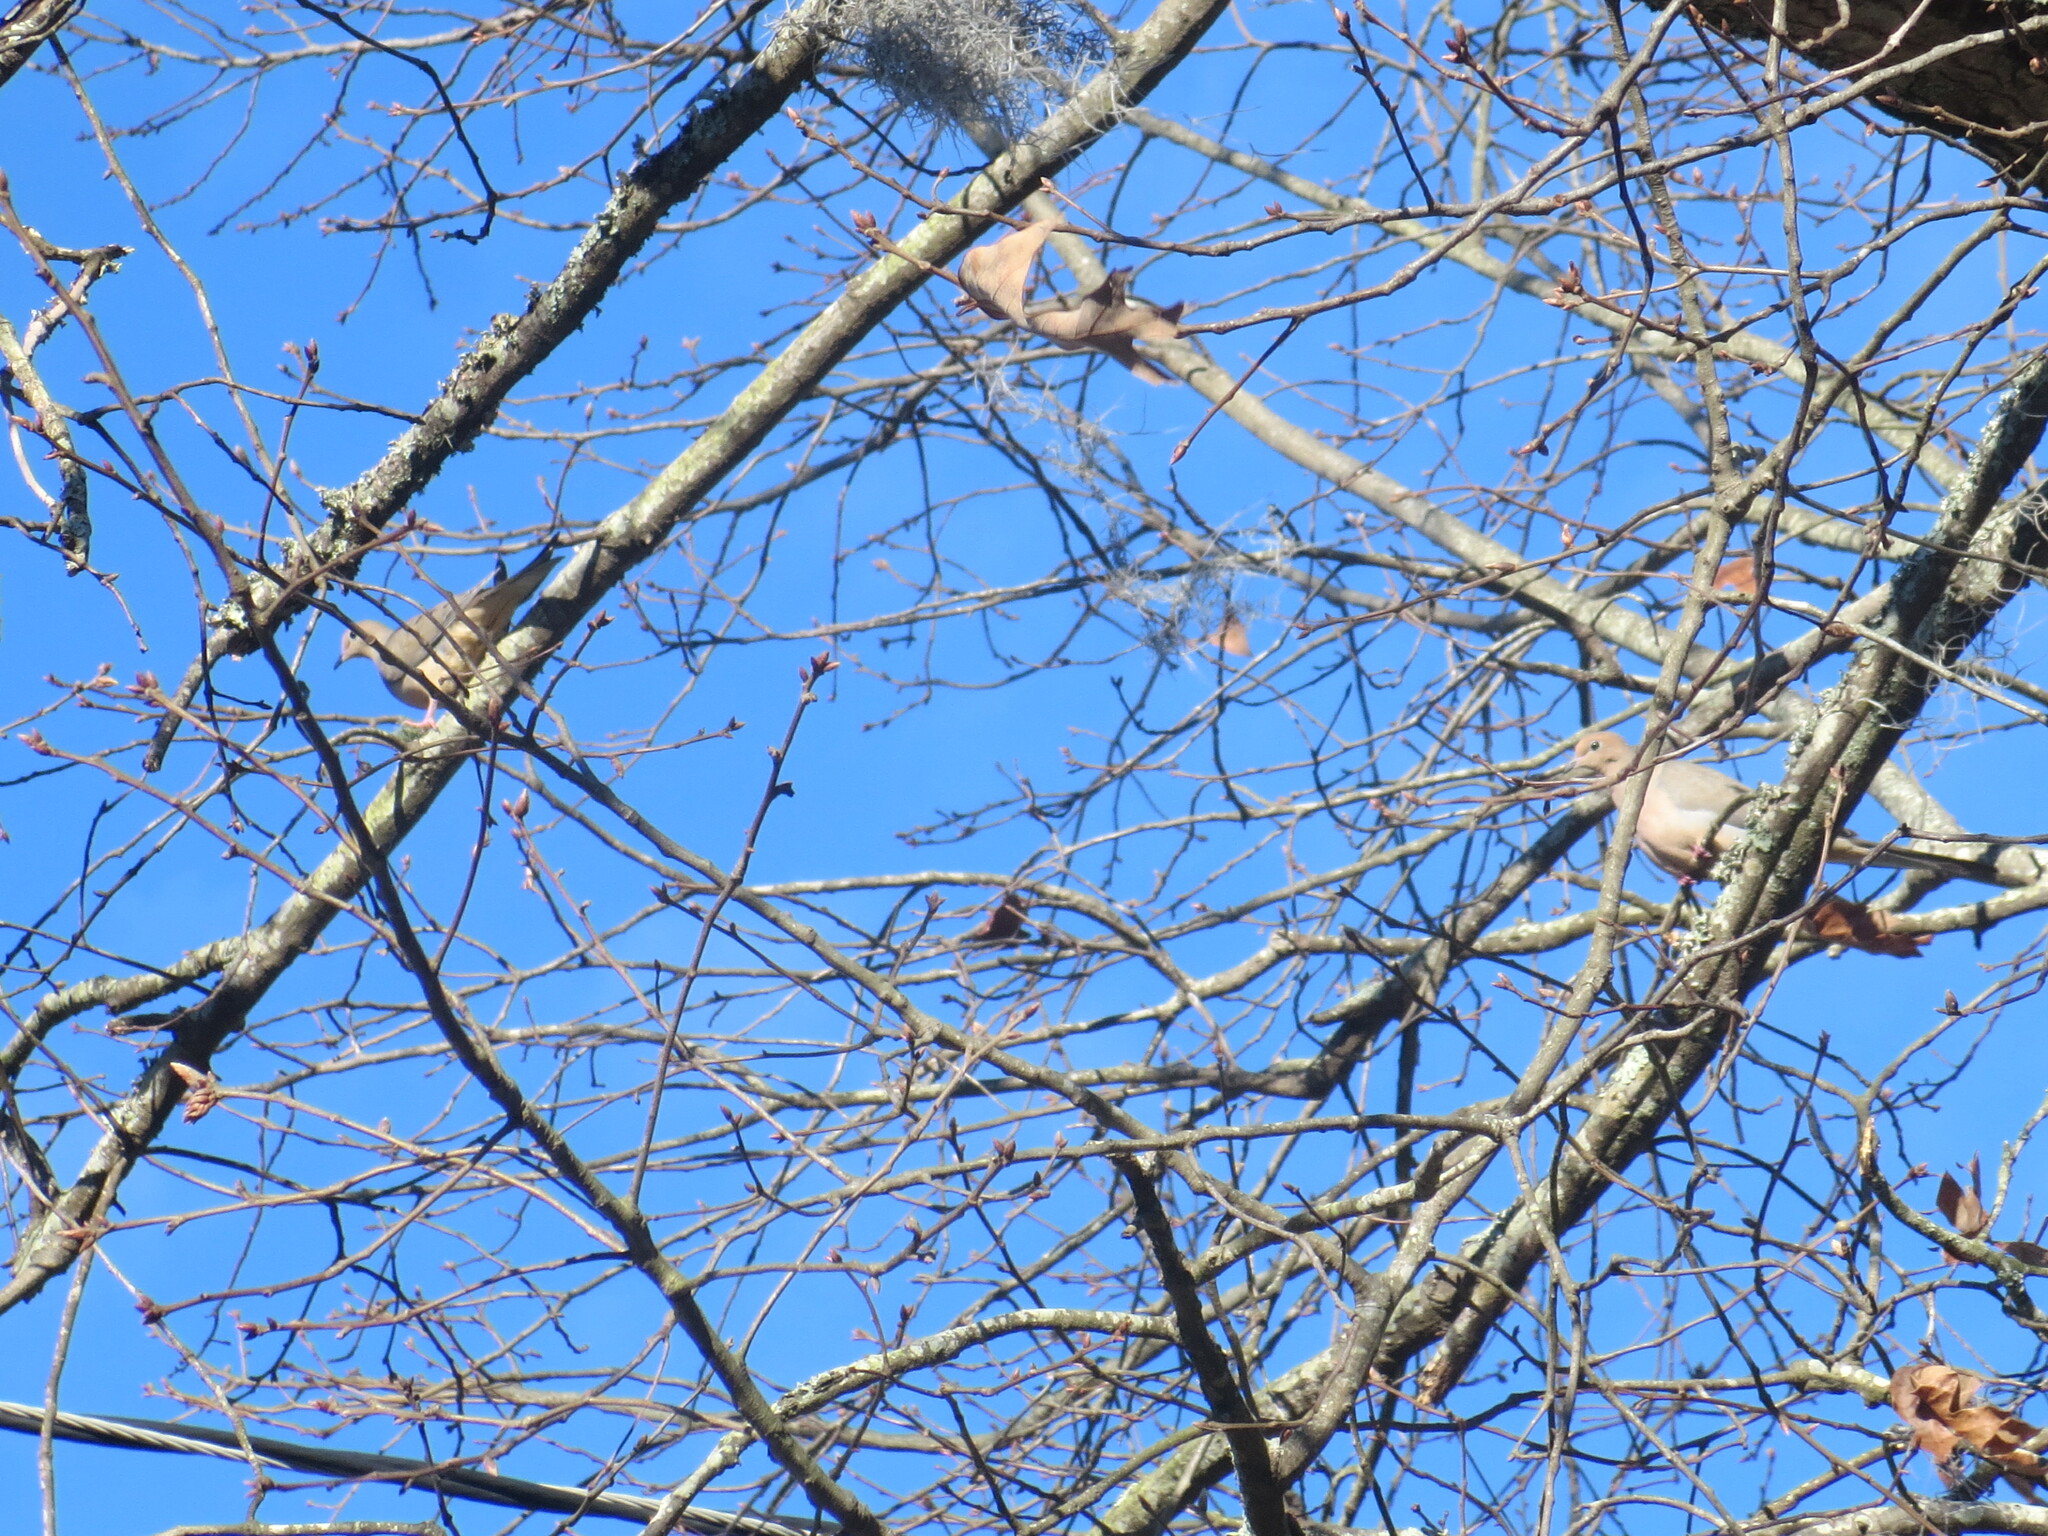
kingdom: Animalia
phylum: Chordata
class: Aves
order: Columbiformes
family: Columbidae
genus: Zenaida
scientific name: Zenaida macroura
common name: Mourning dove
